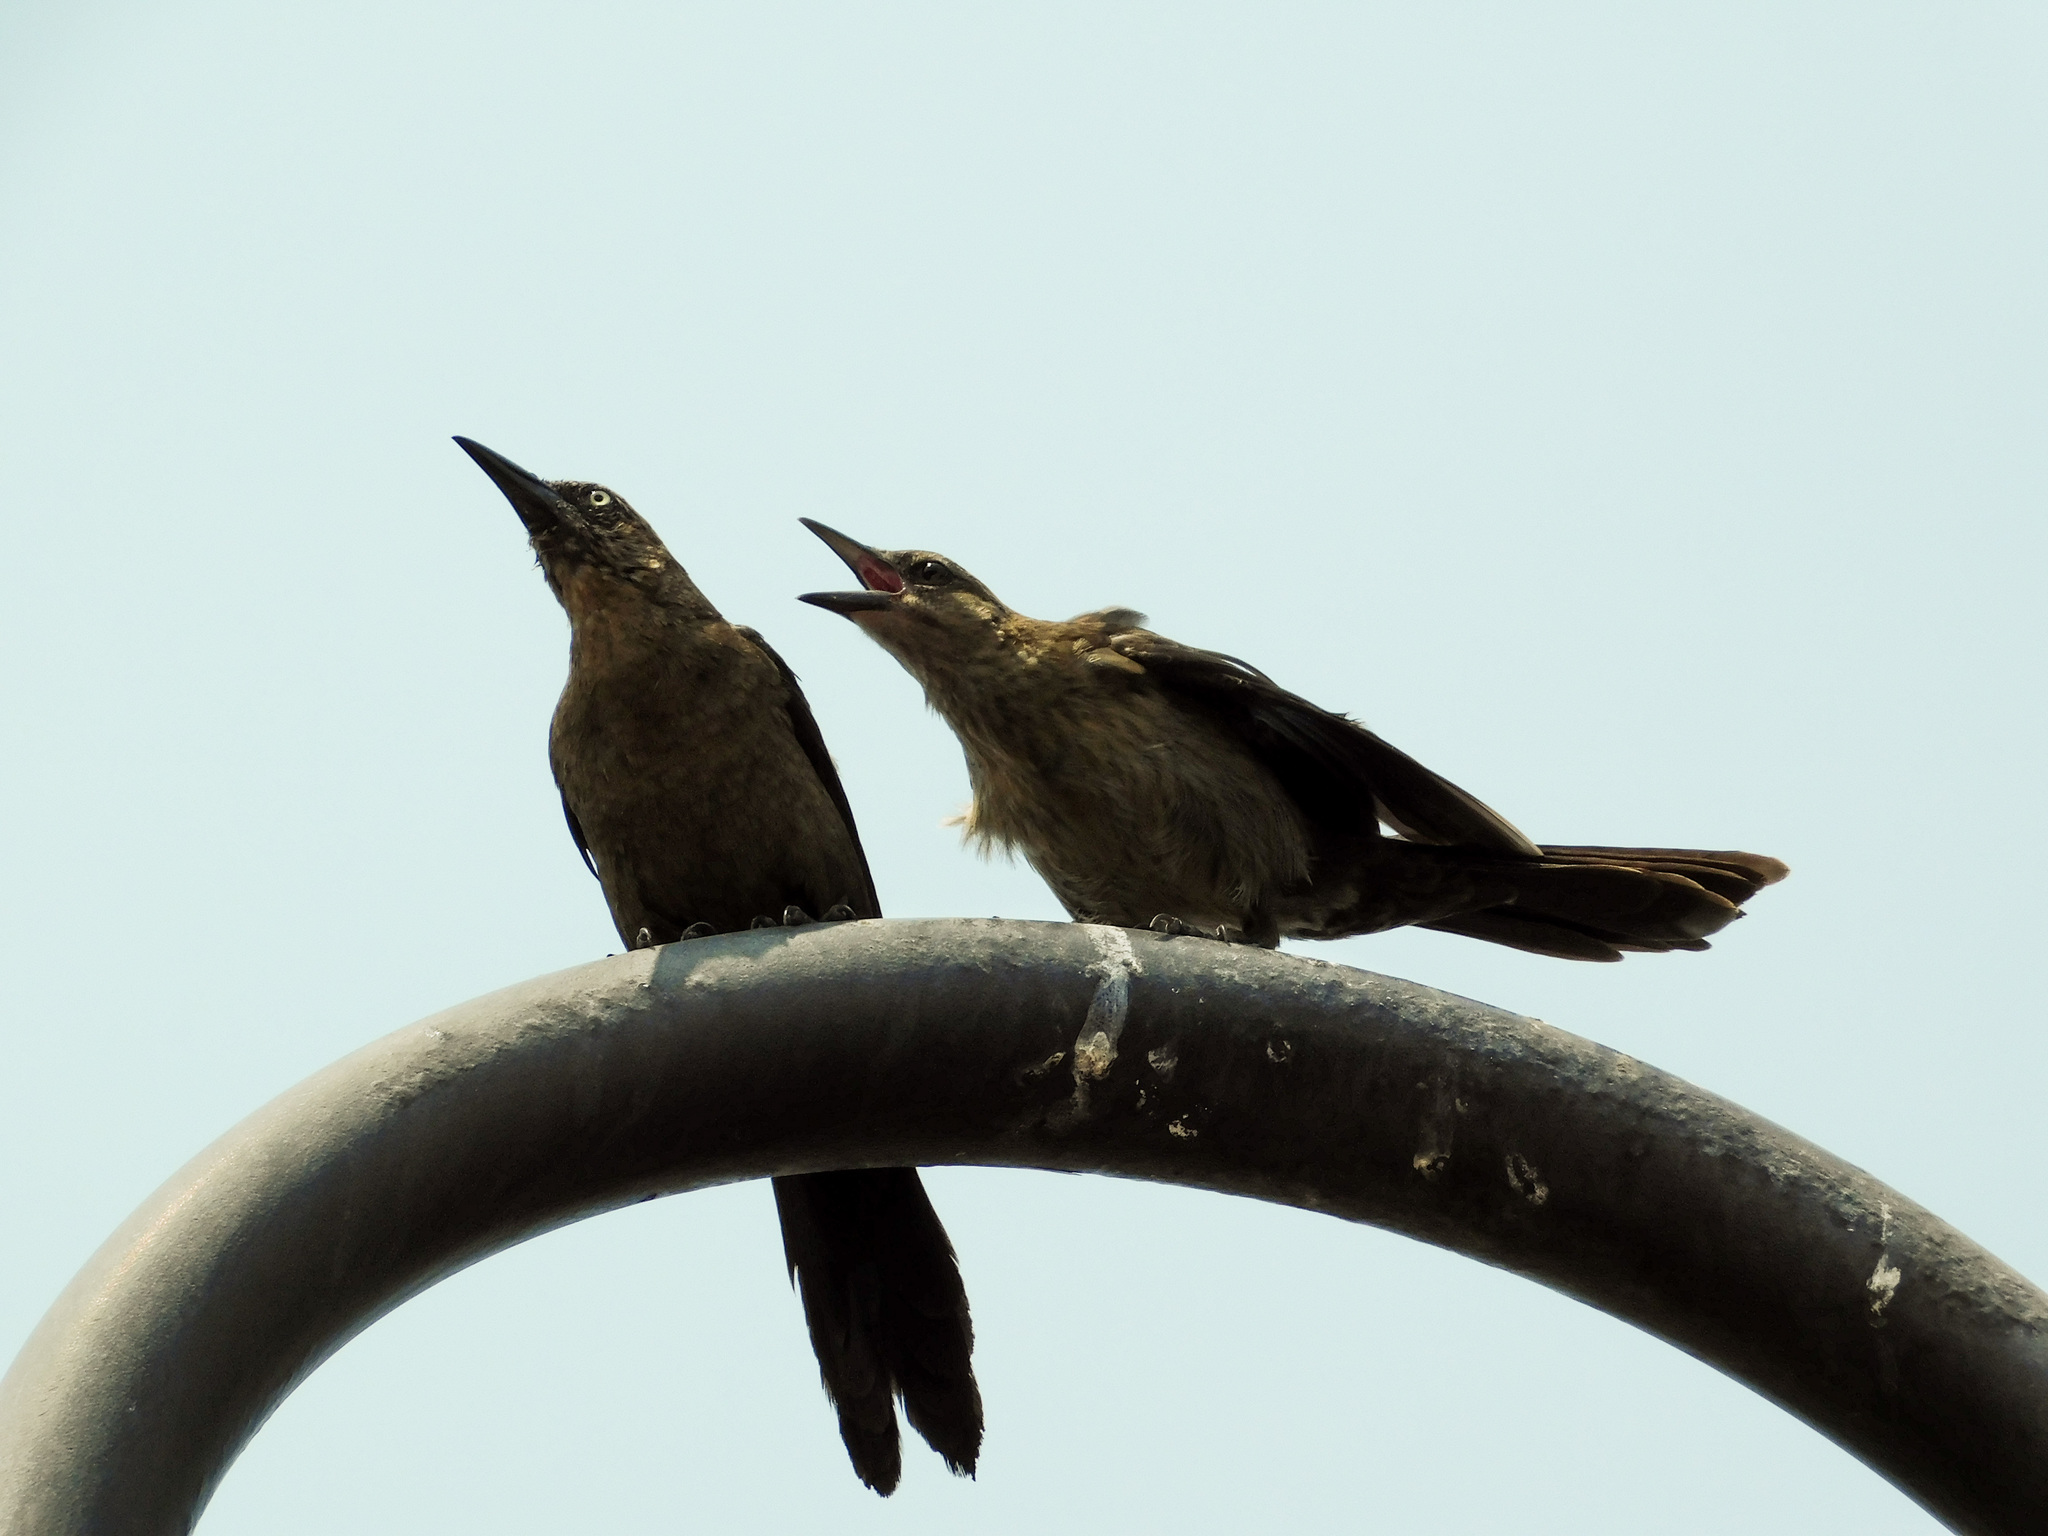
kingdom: Animalia
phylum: Chordata
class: Aves
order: Passeriformes
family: Icteridae
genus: Quiscalus
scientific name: Quiscalus mexicanus
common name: Great-tailed grackle
